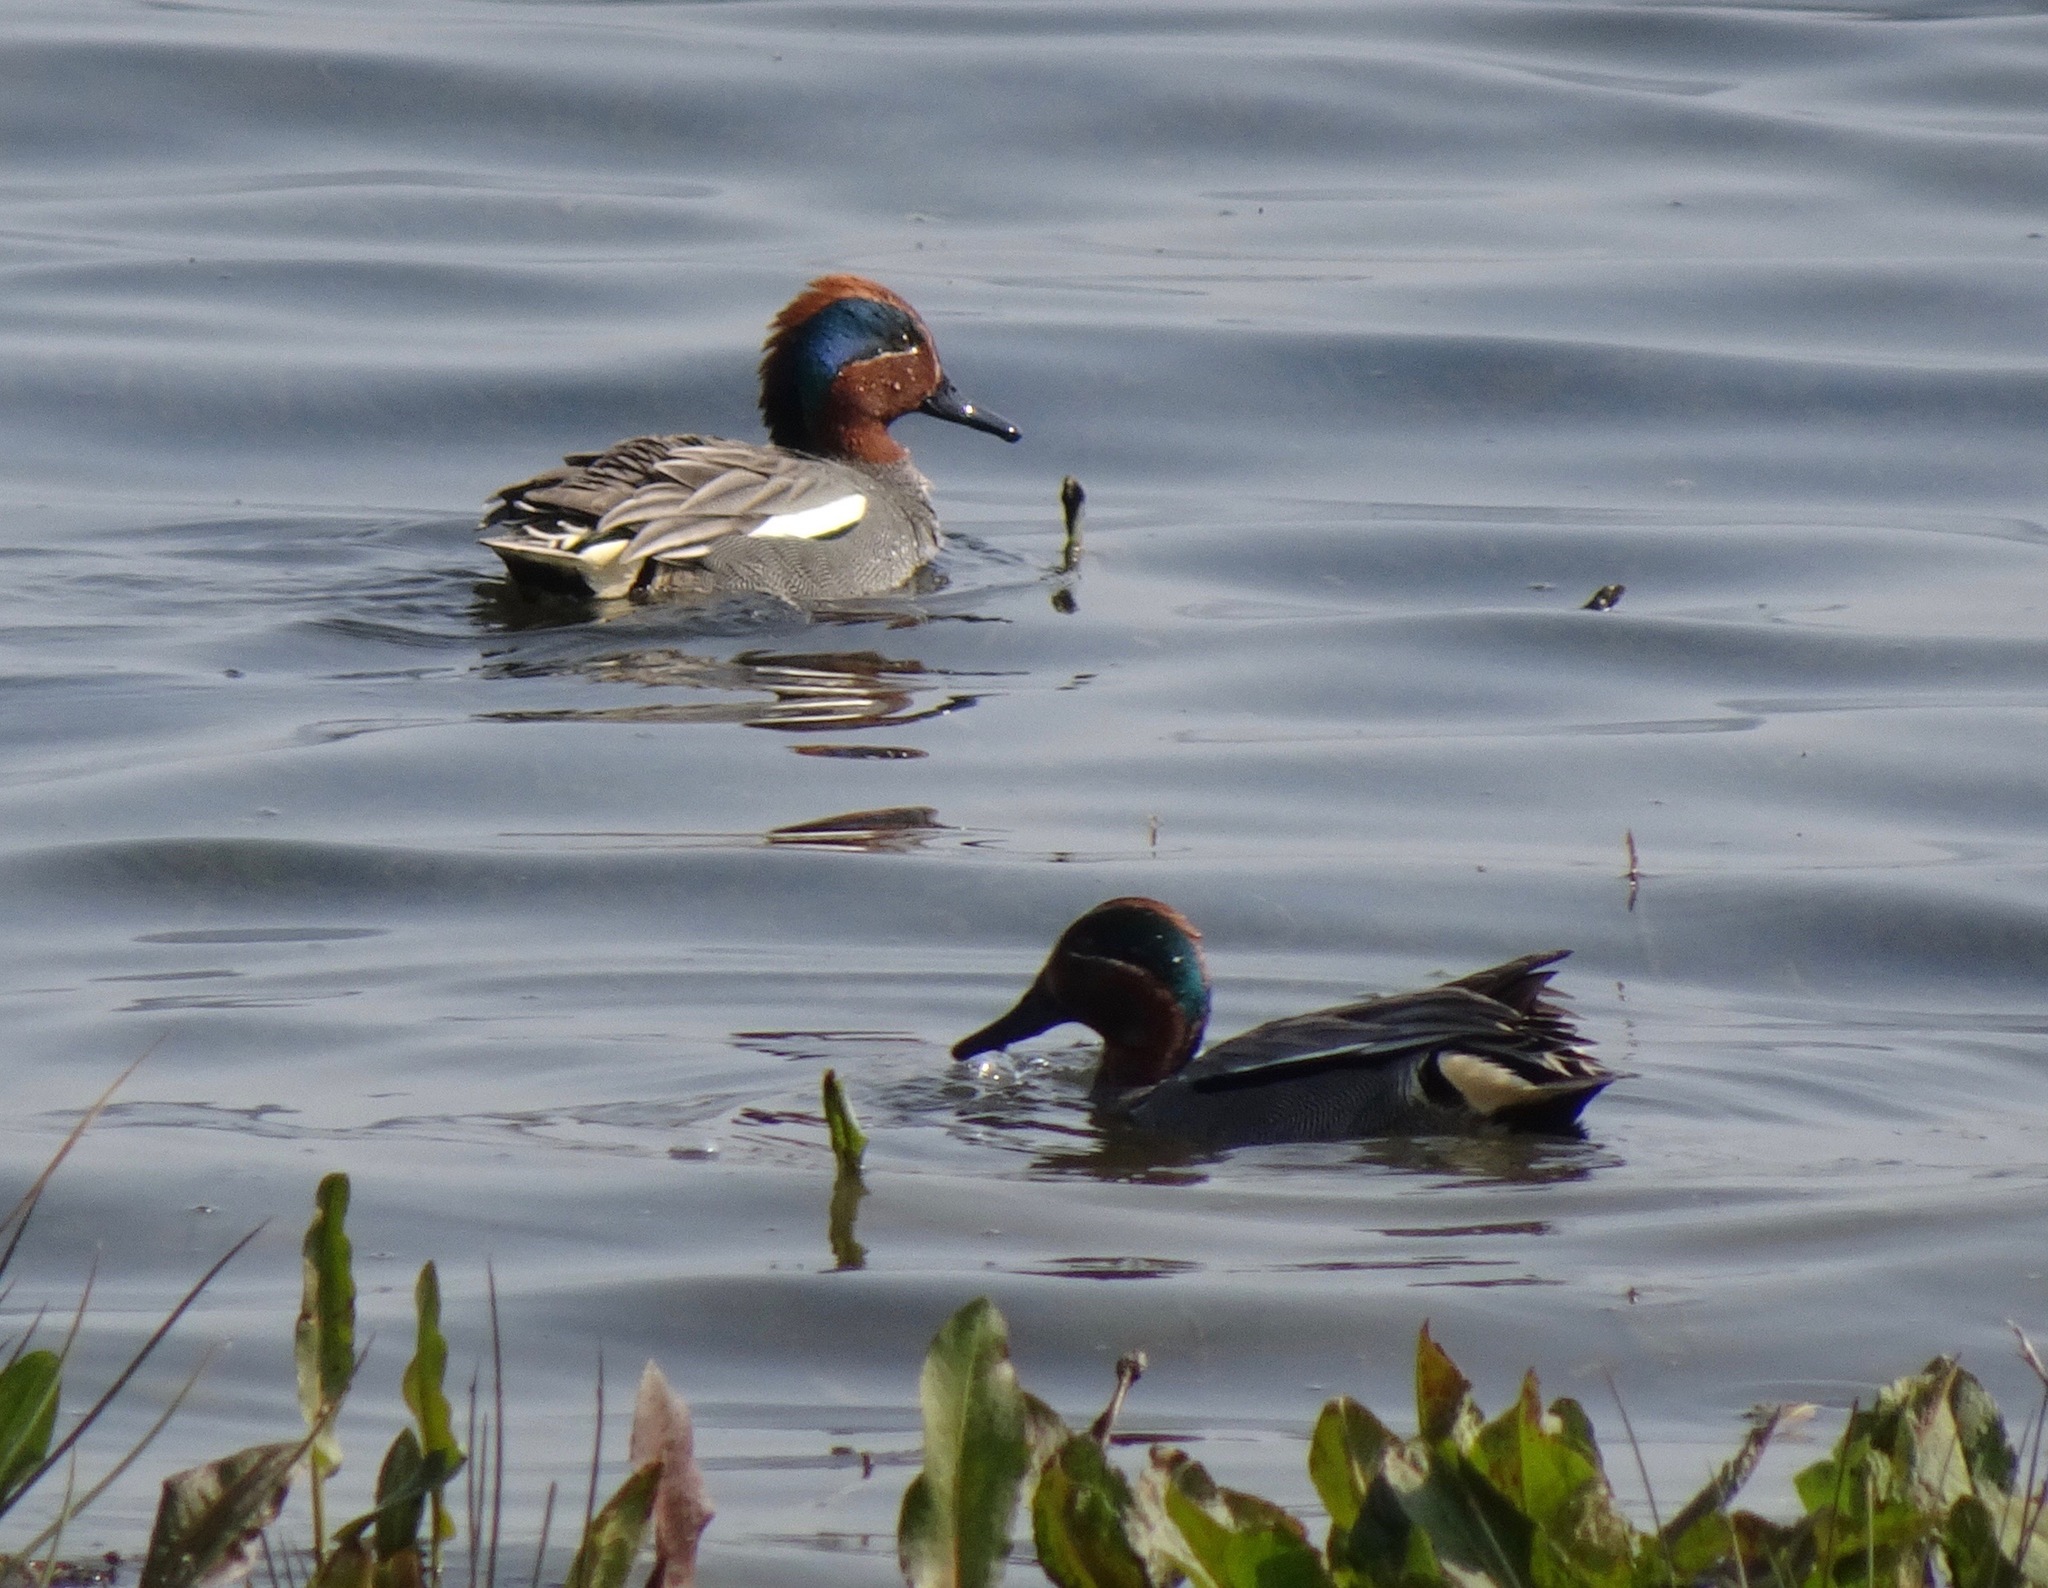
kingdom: Animalia
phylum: Chordata
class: Aves
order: Anseriformes
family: Anatidae
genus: Anas
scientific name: Anas crecca
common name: Eurasian teal
